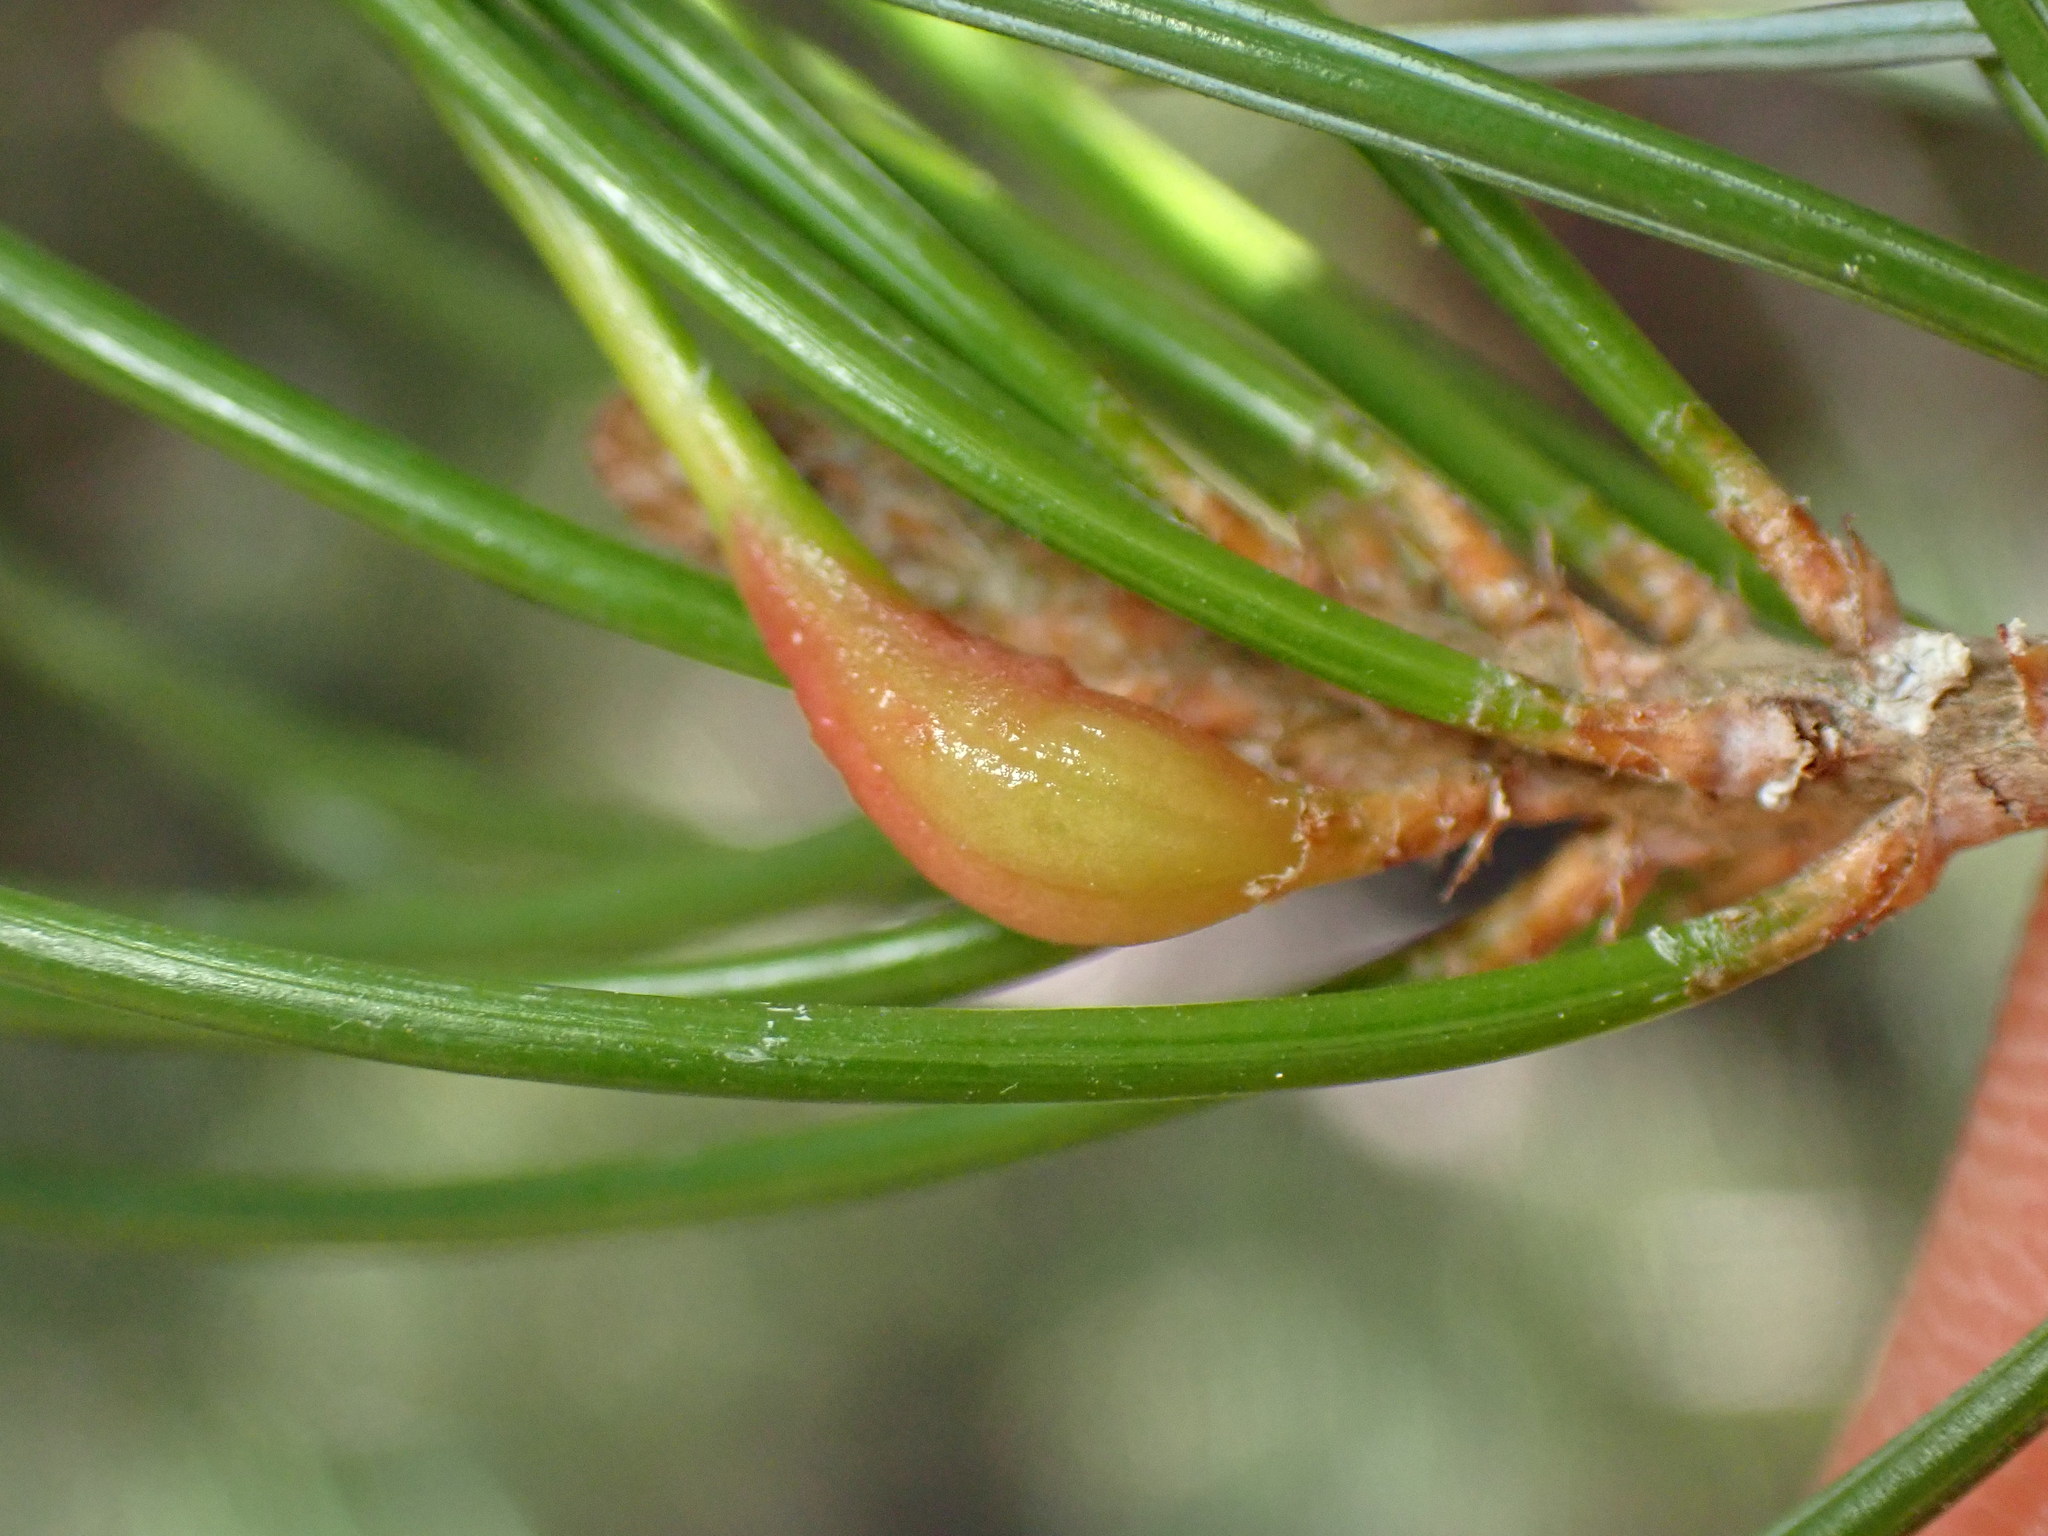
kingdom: Animalia
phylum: Arthropoda
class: Insecta
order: Diptera
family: Cecidomyiidae
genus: Pinyonia
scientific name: Pinyonia edulicola
